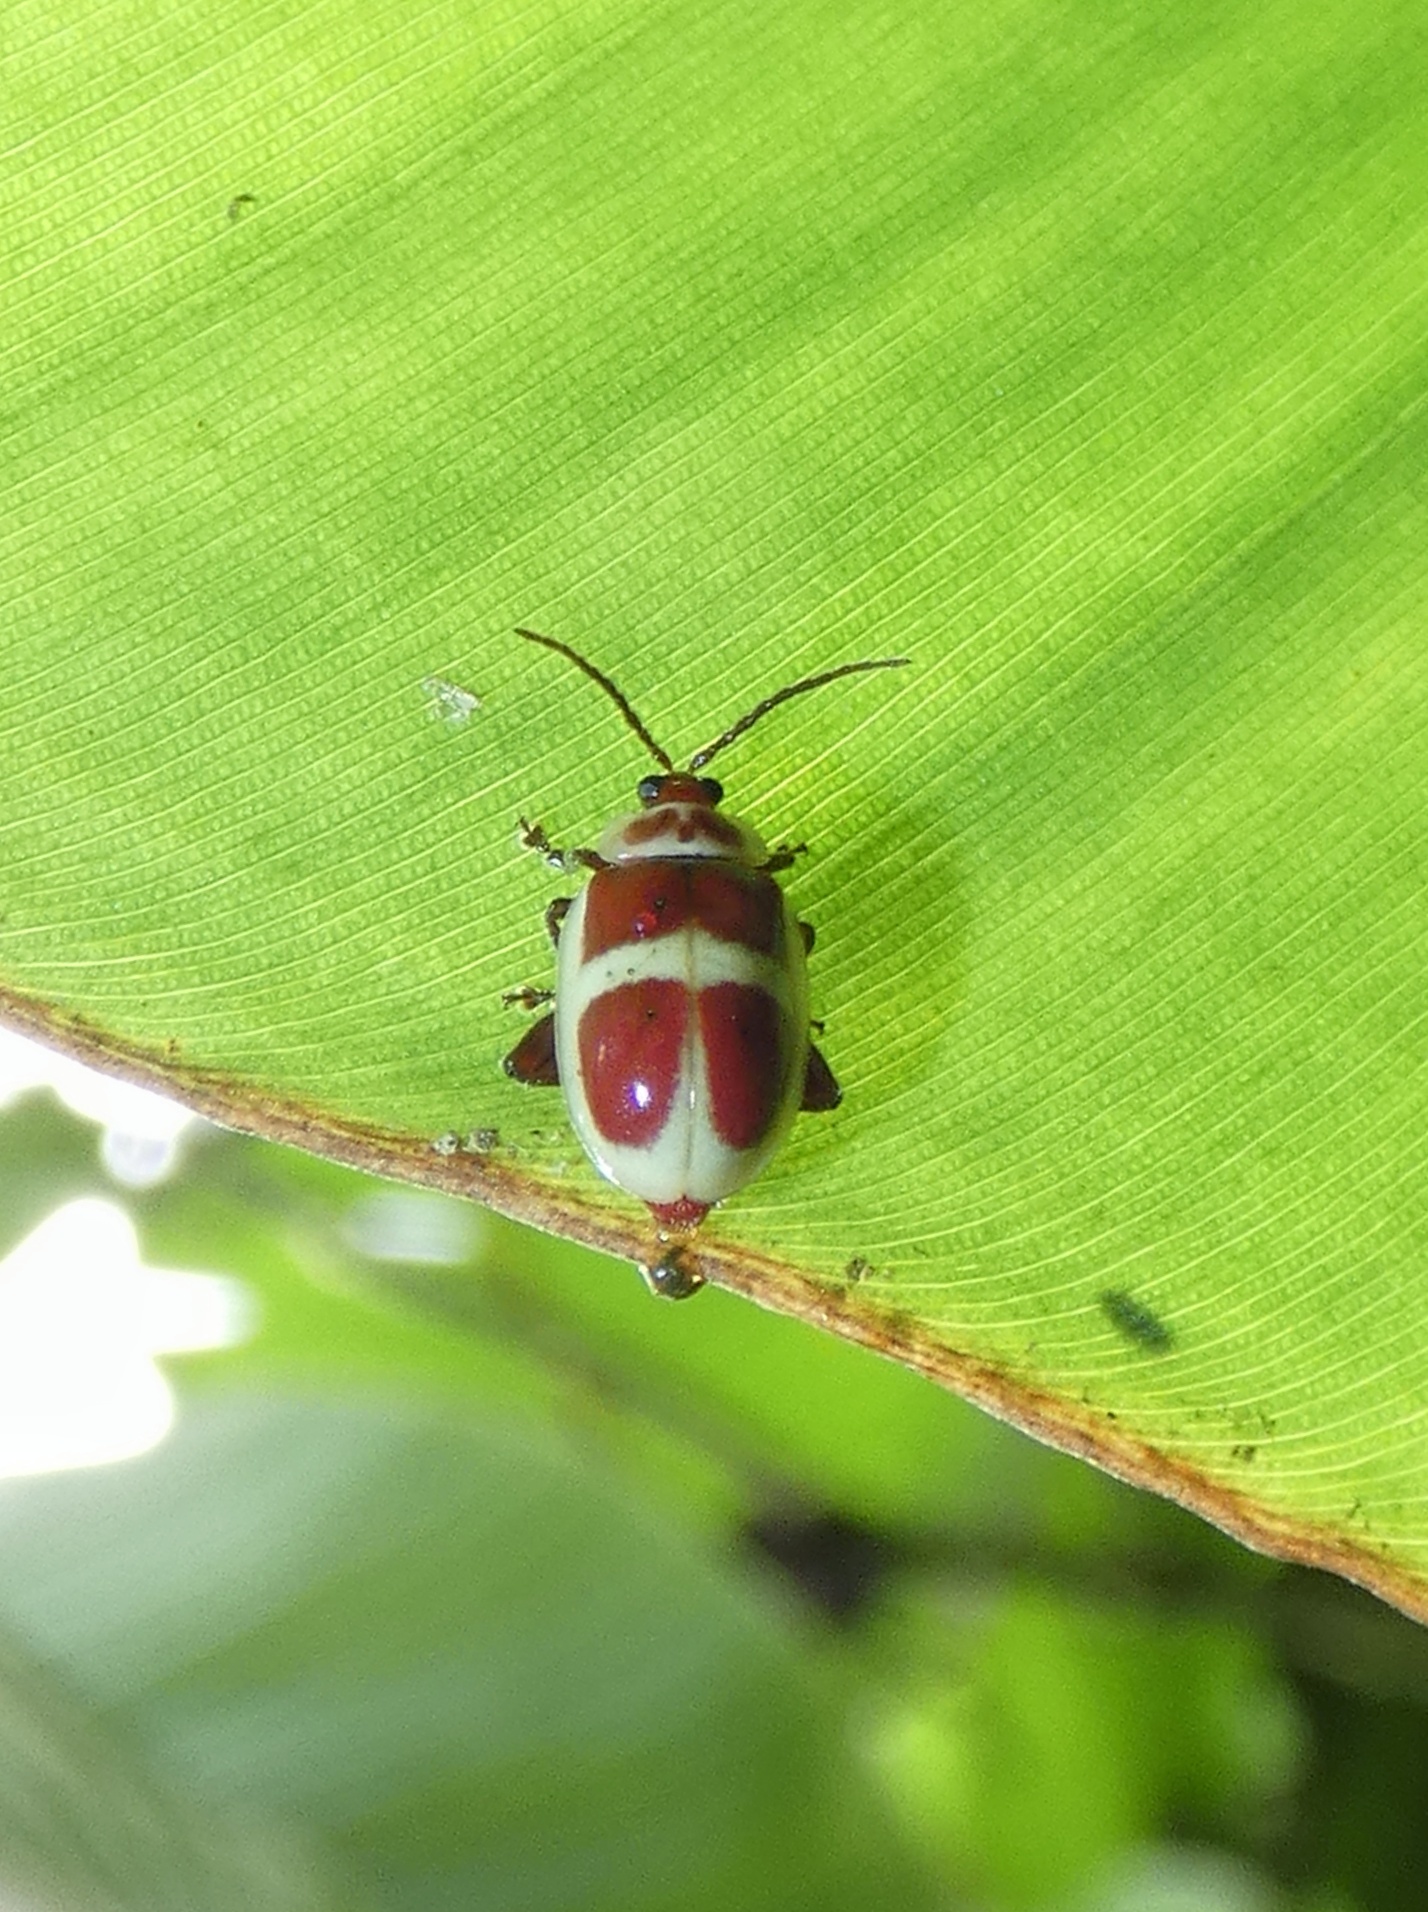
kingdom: Animalia
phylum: Arthropoda
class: Insecta
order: Coleoptera
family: Chrysomelidae
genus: Asphaera
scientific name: Asphaera discicollis
